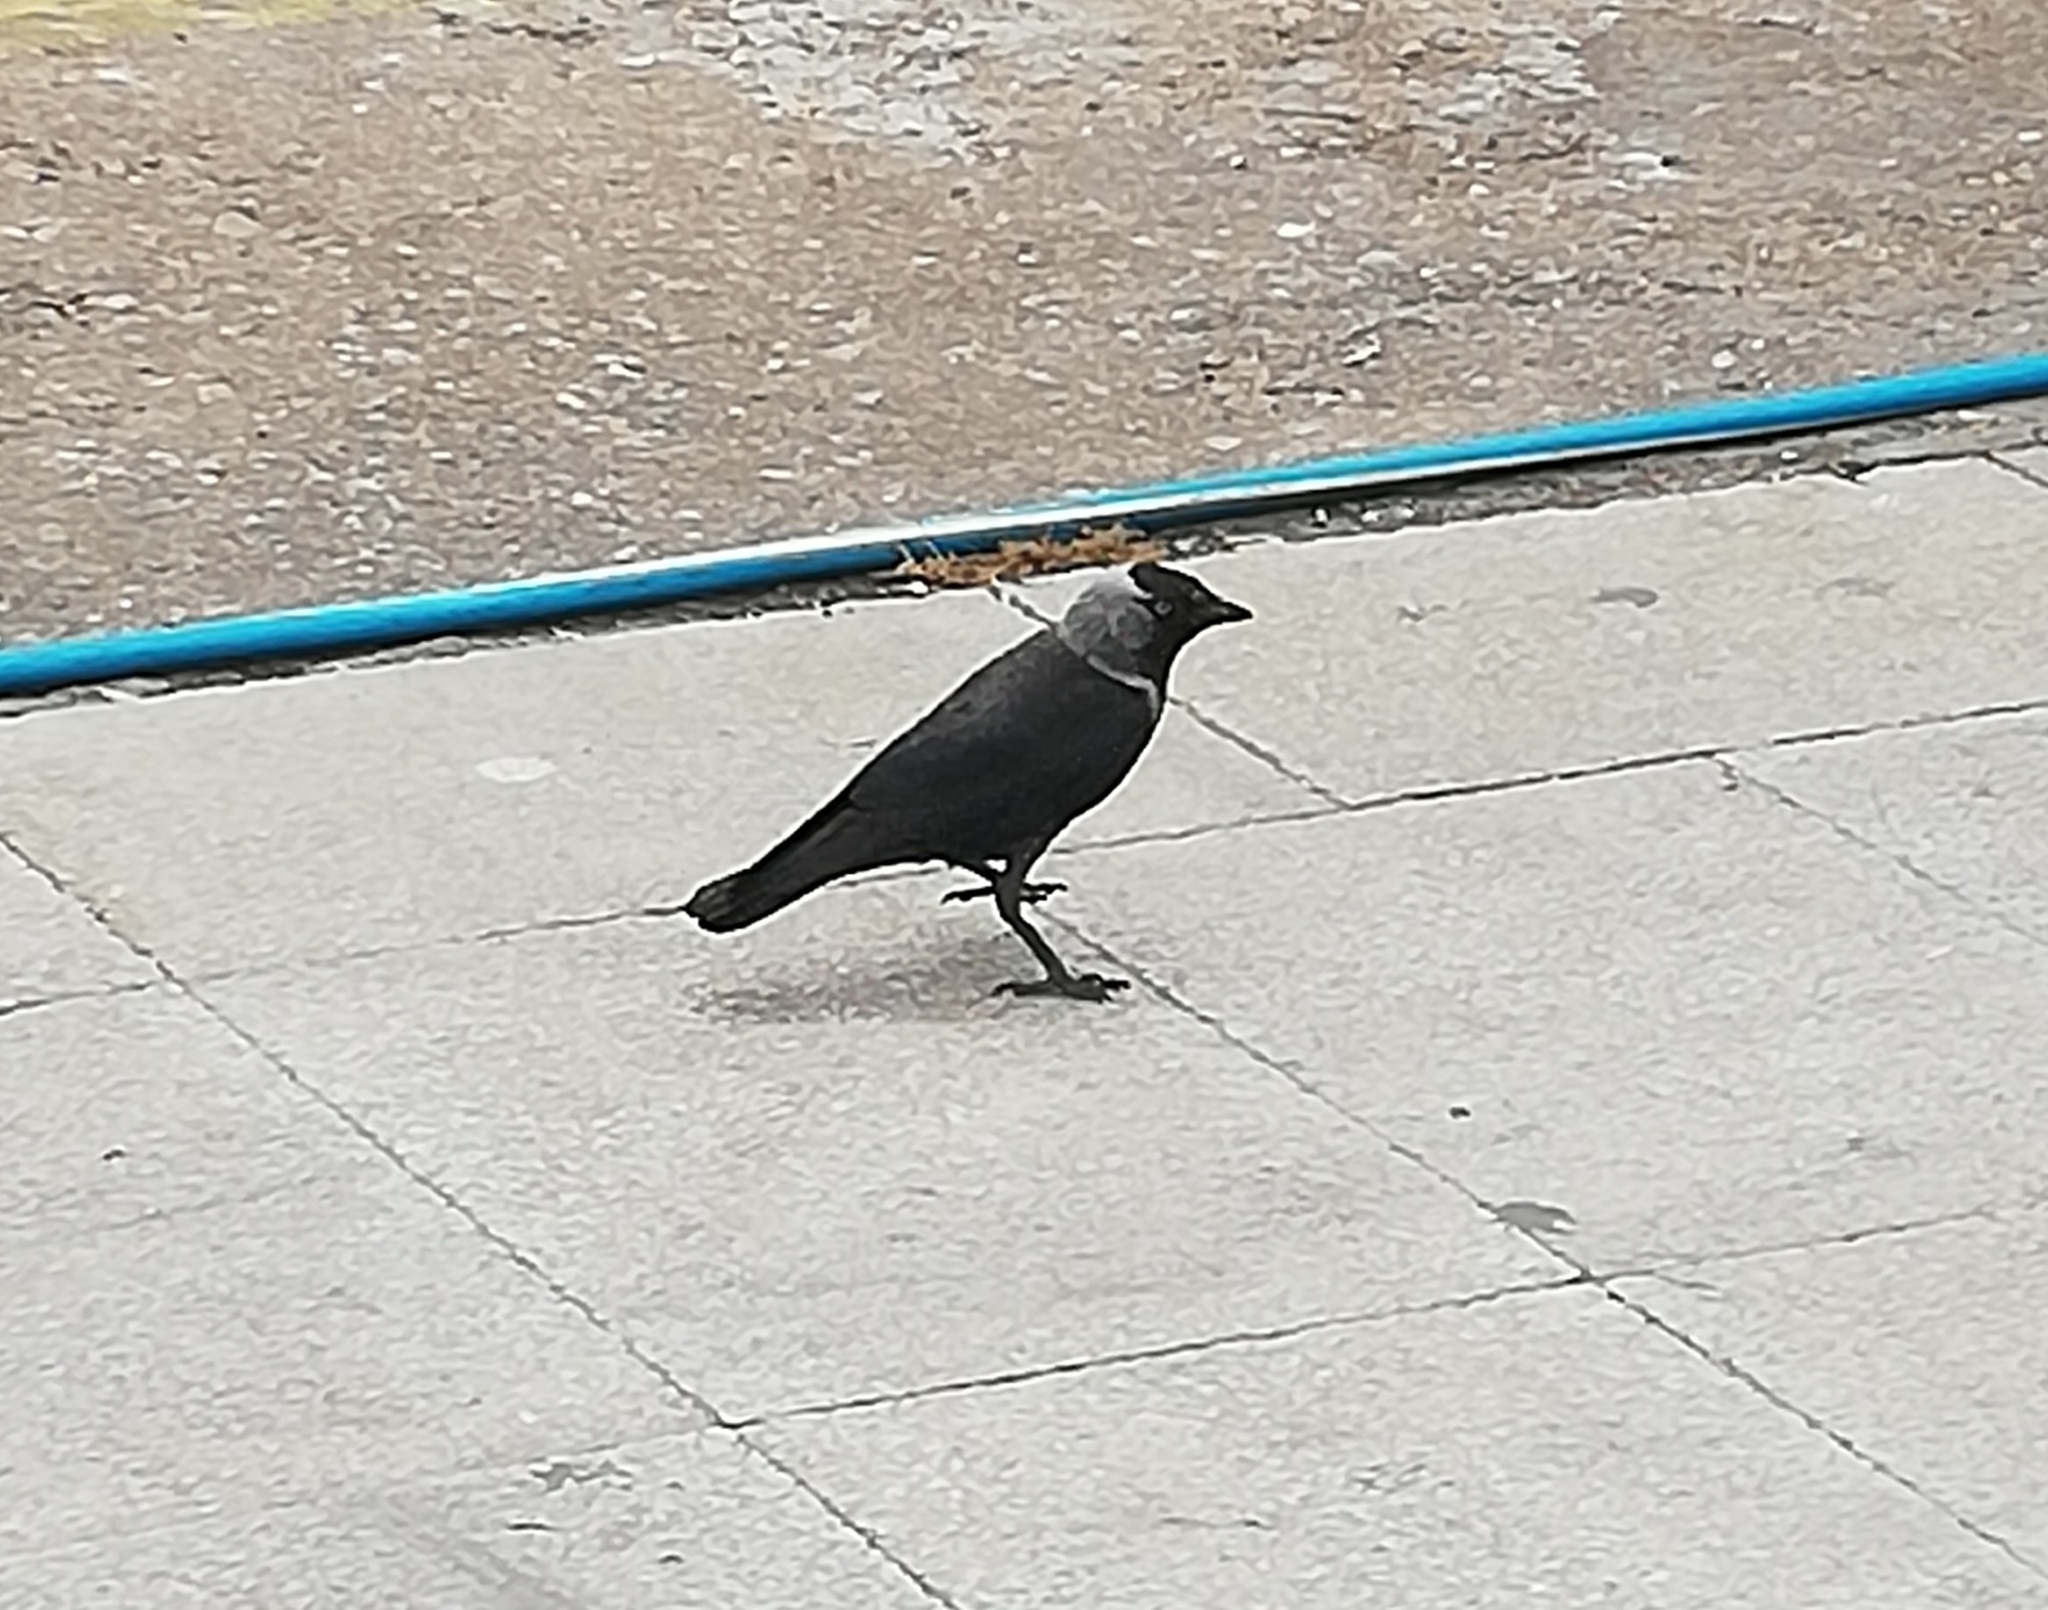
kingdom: Animalia
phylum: Chordata
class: Aves
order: Passeriformes
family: Corvidae
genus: Coloeus
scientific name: Coloeus monedula
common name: Western jackdaw
